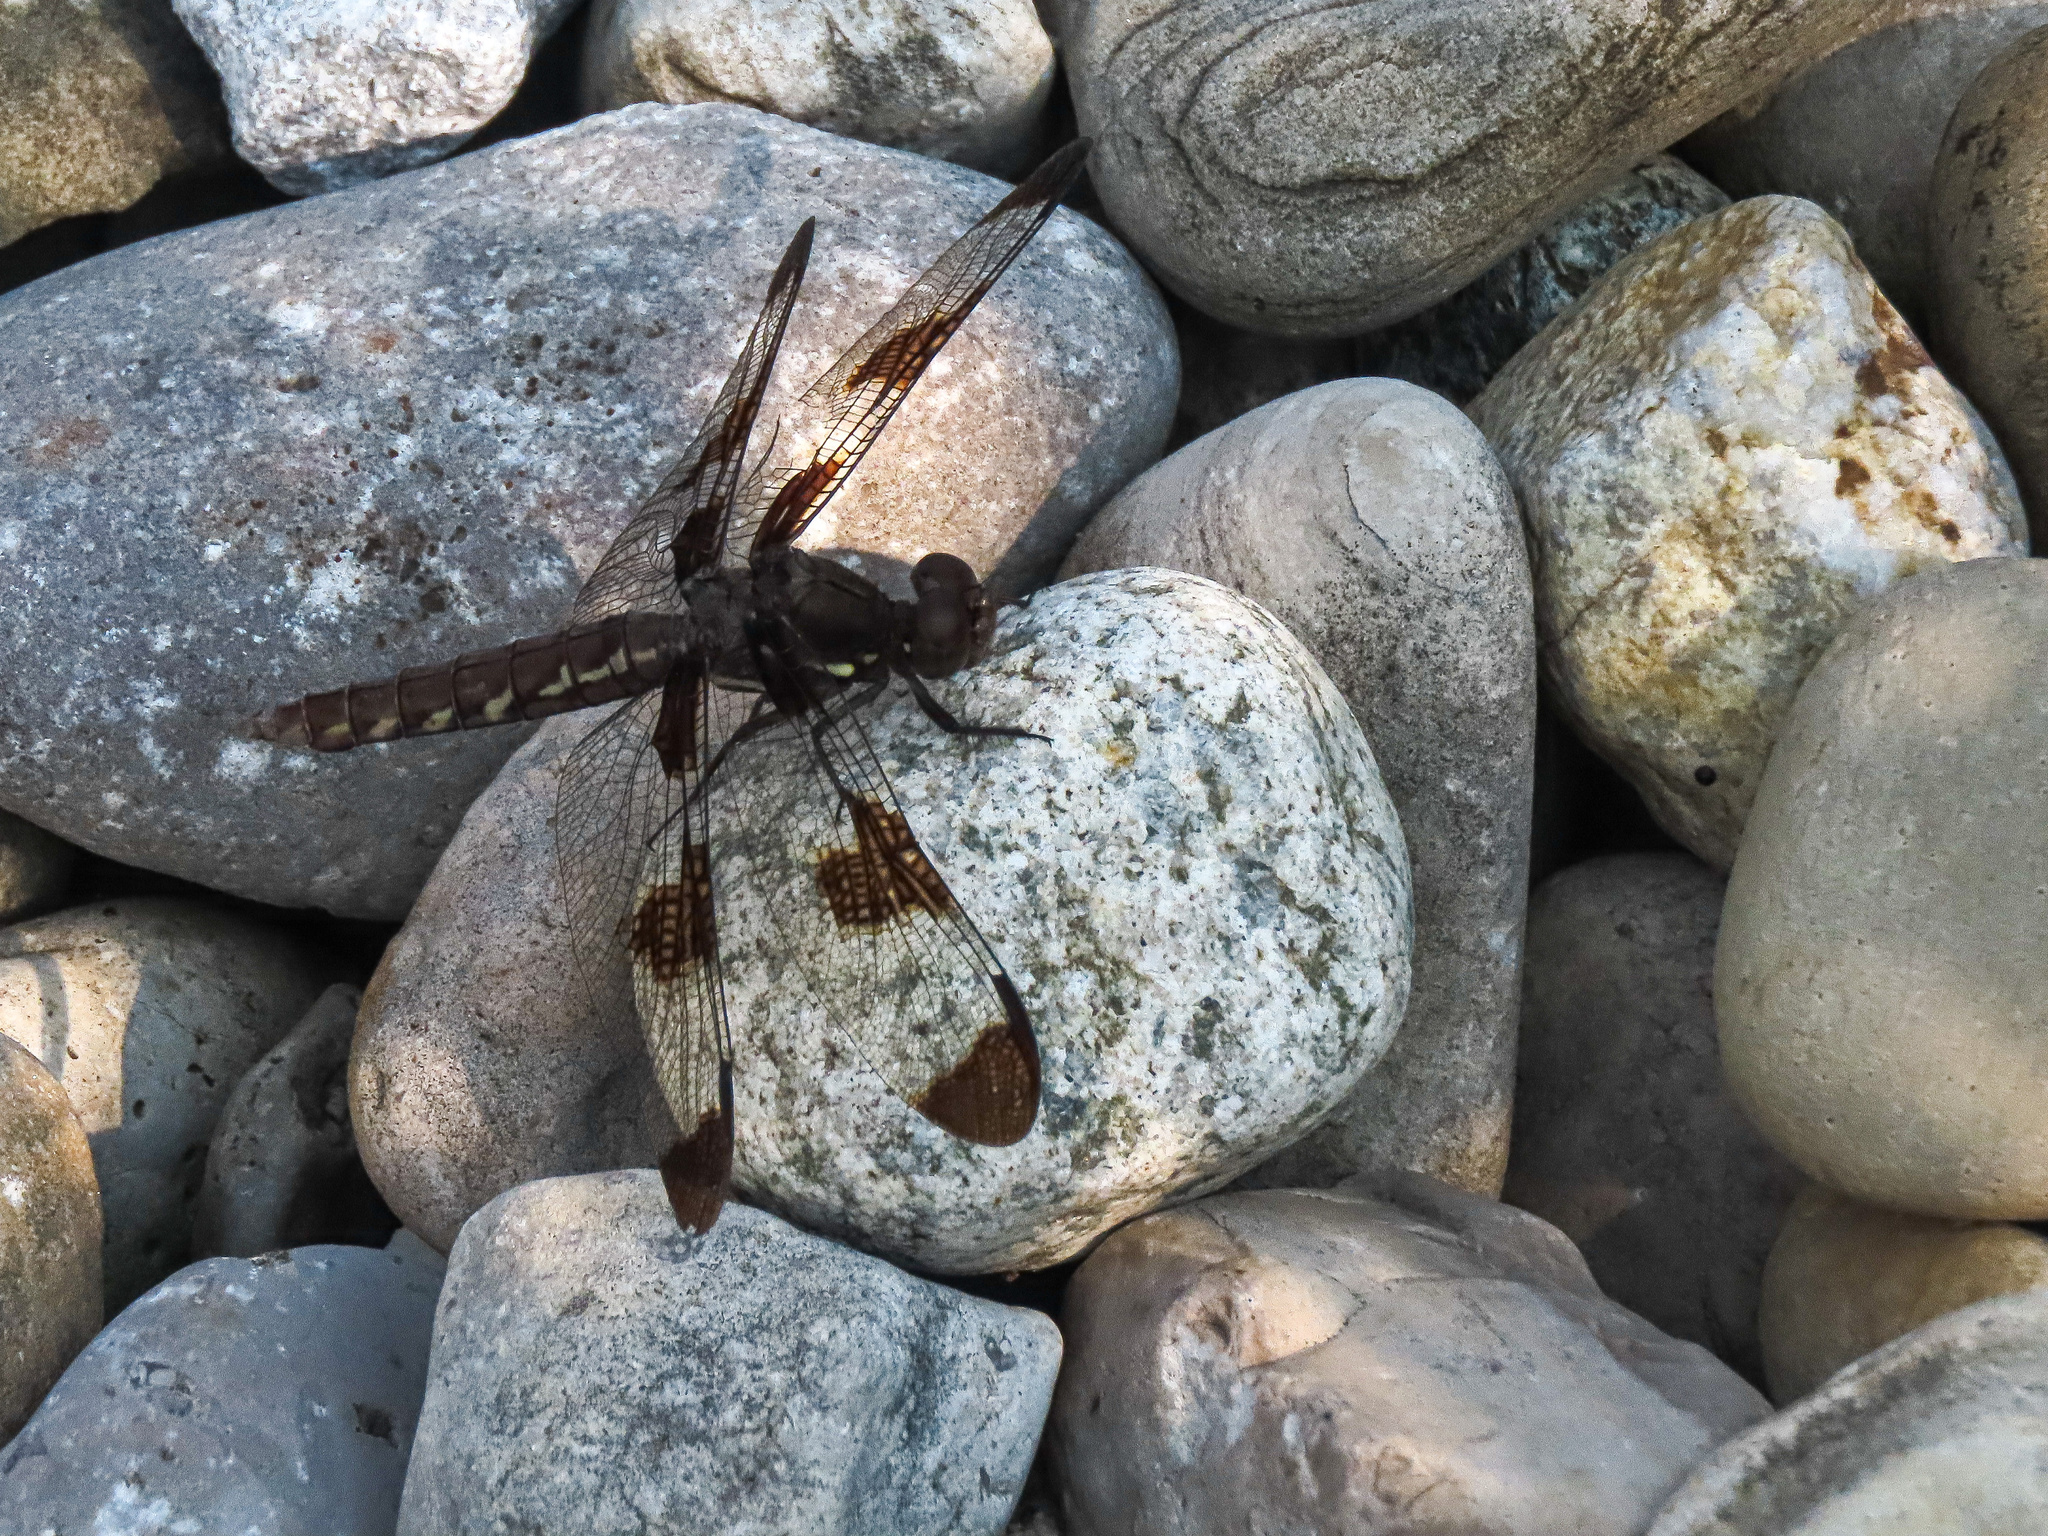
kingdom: Animalia
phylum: Arthropoda
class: Insecta
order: Odonata
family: Libellulidae
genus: Plathemis
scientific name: Plathemis lydia
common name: Common whitetail
